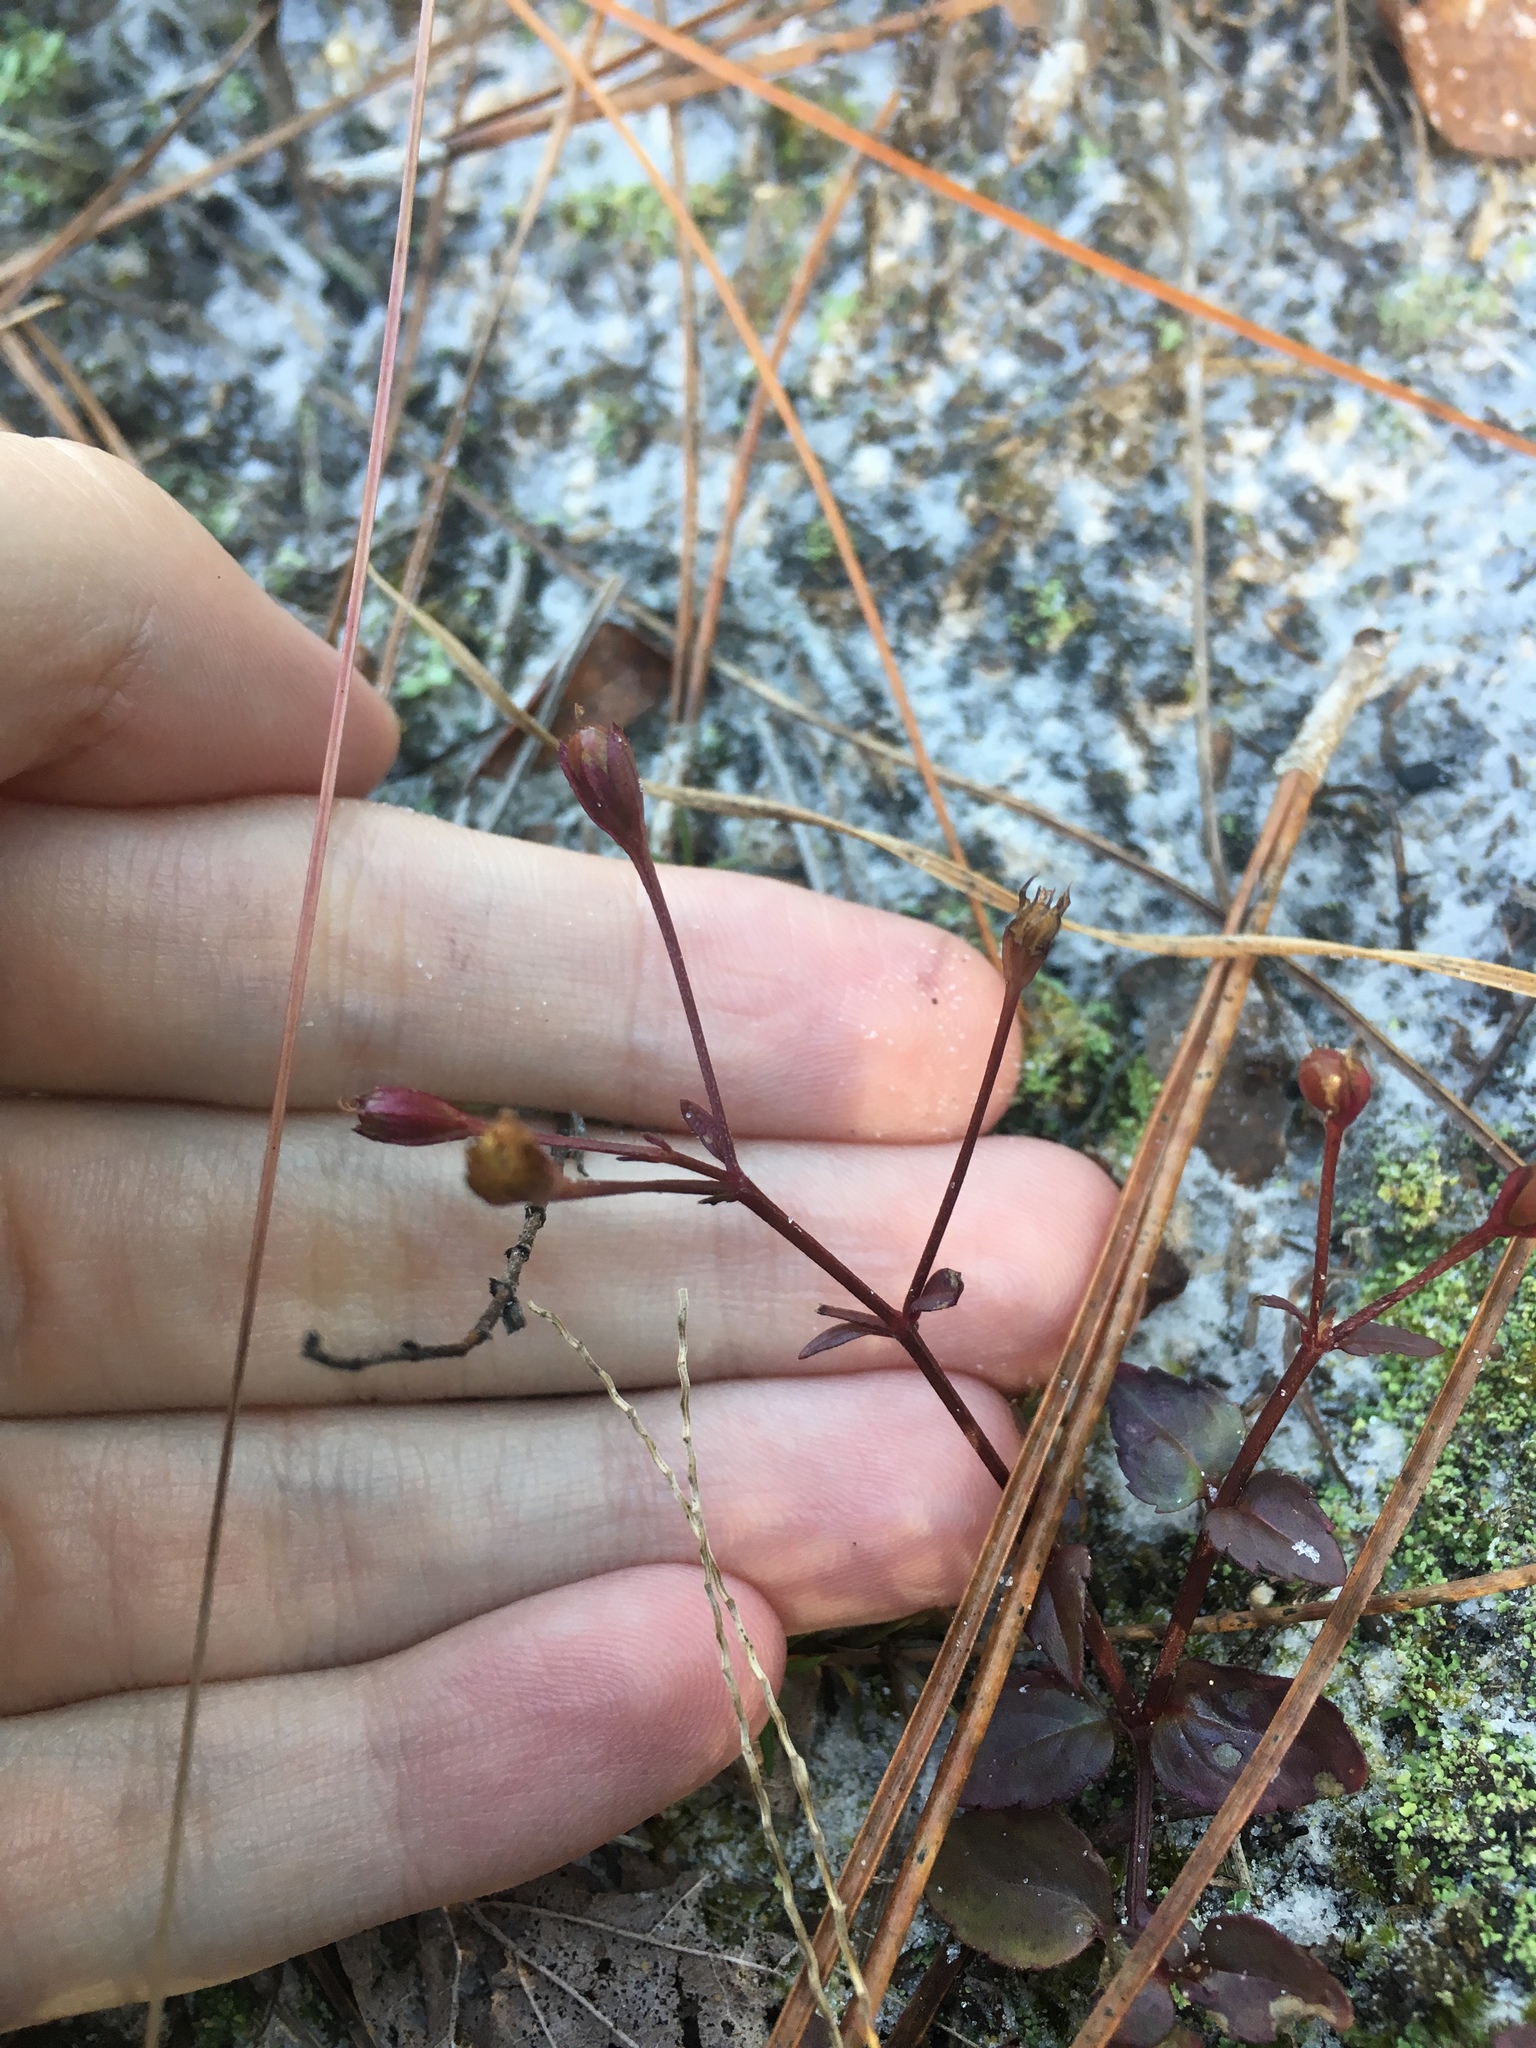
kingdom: Plantae
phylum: Tracheophyta
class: Magnoliopsida
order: Lamiales
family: Linderniaceae
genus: Torenia
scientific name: Torenia crustacea
